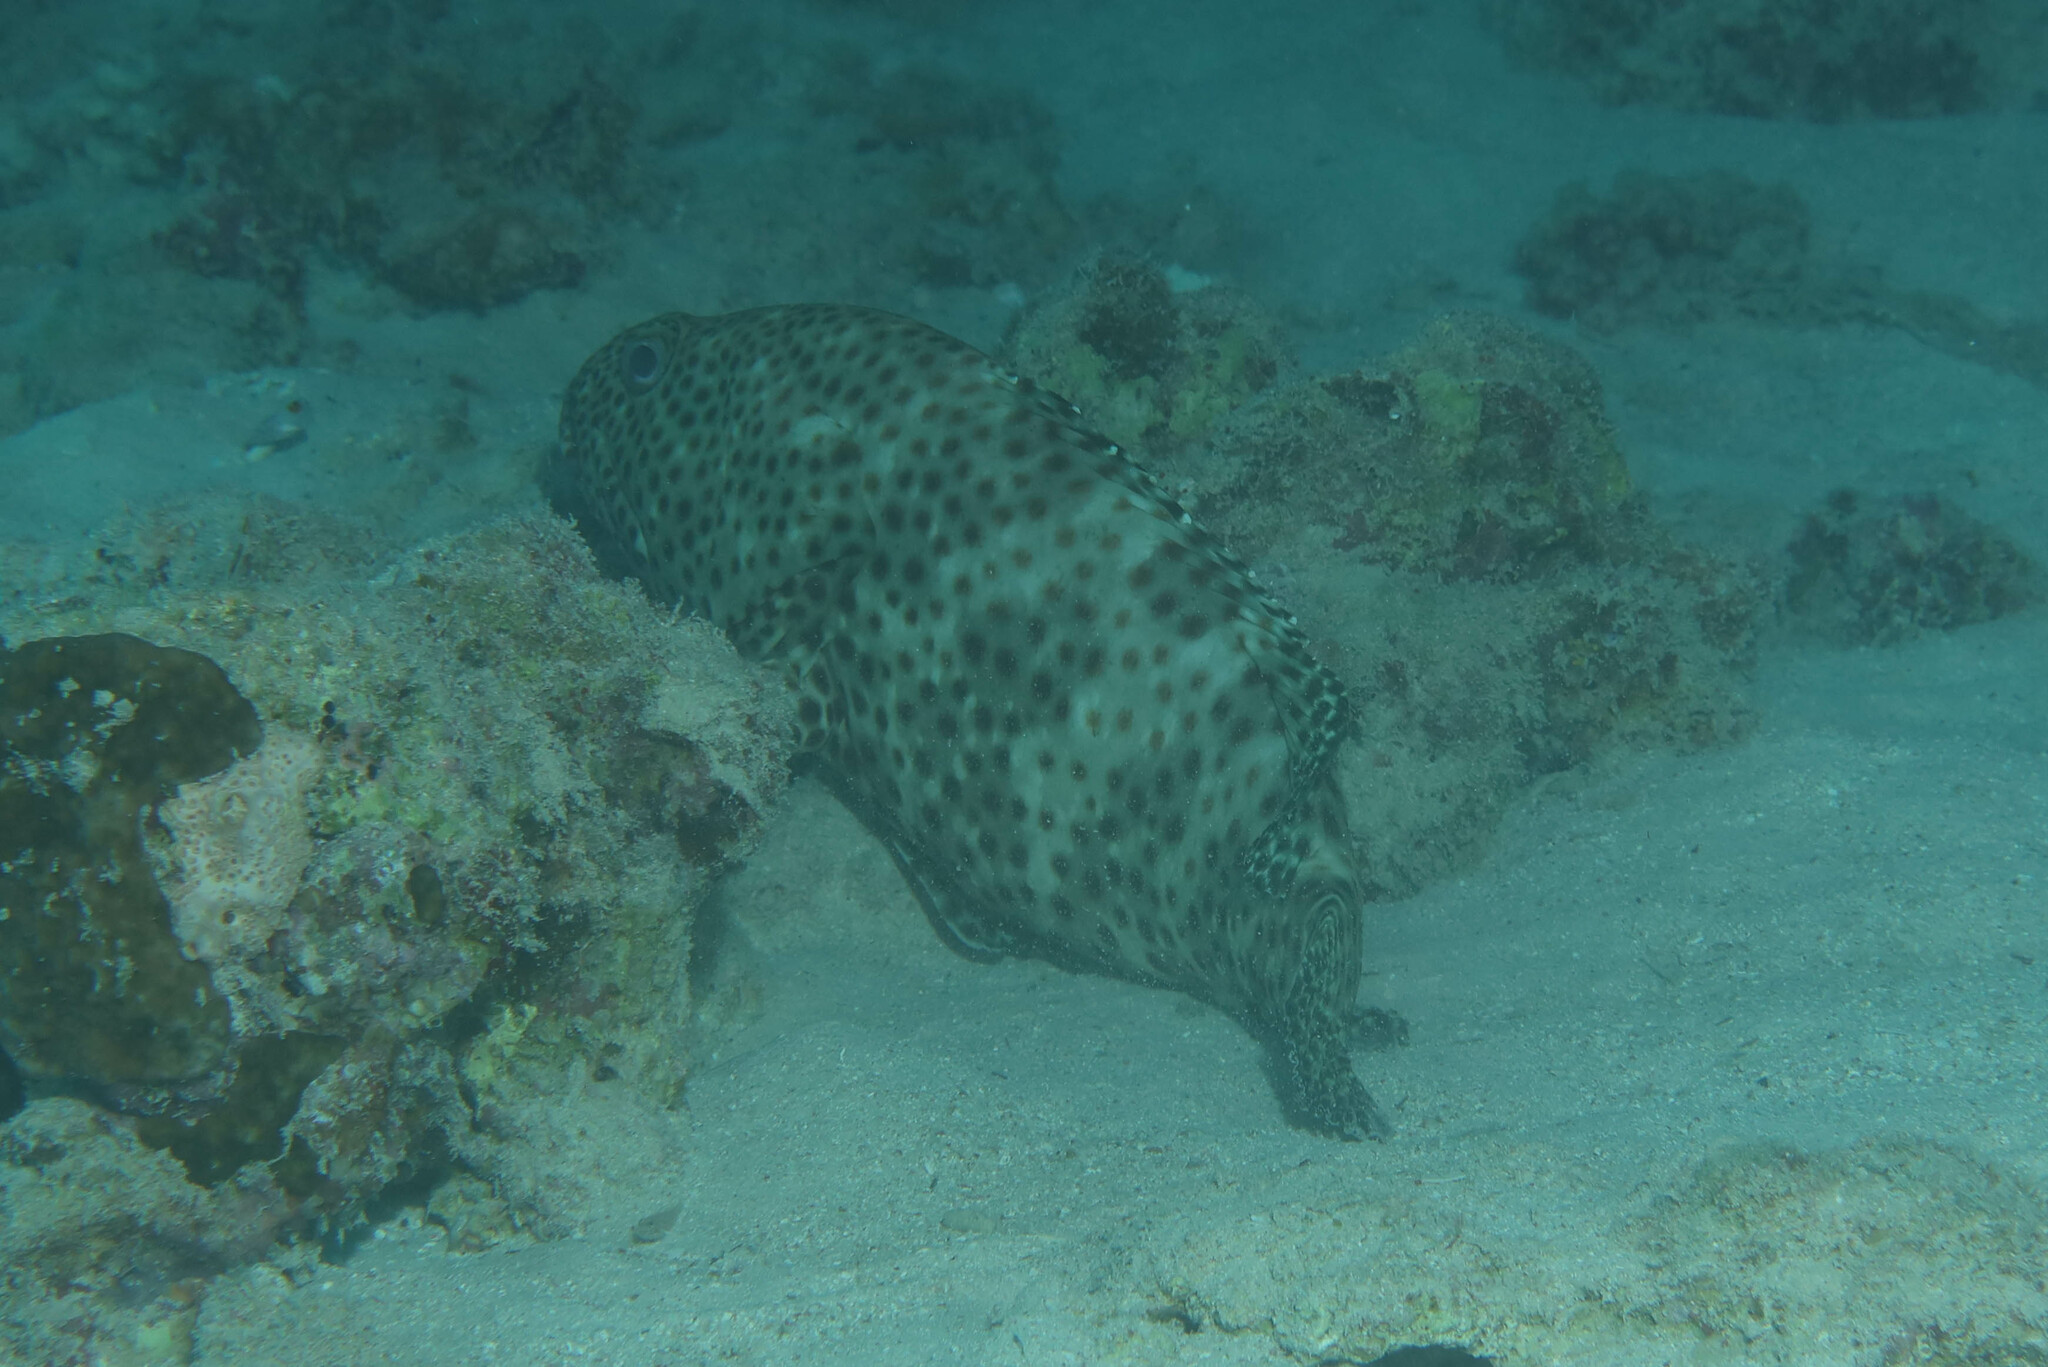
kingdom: Animalia
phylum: Chordata
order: Perciformes
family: Serranidae
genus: Epinephelus
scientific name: Epinephelus tauvina
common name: Greasy grouper
